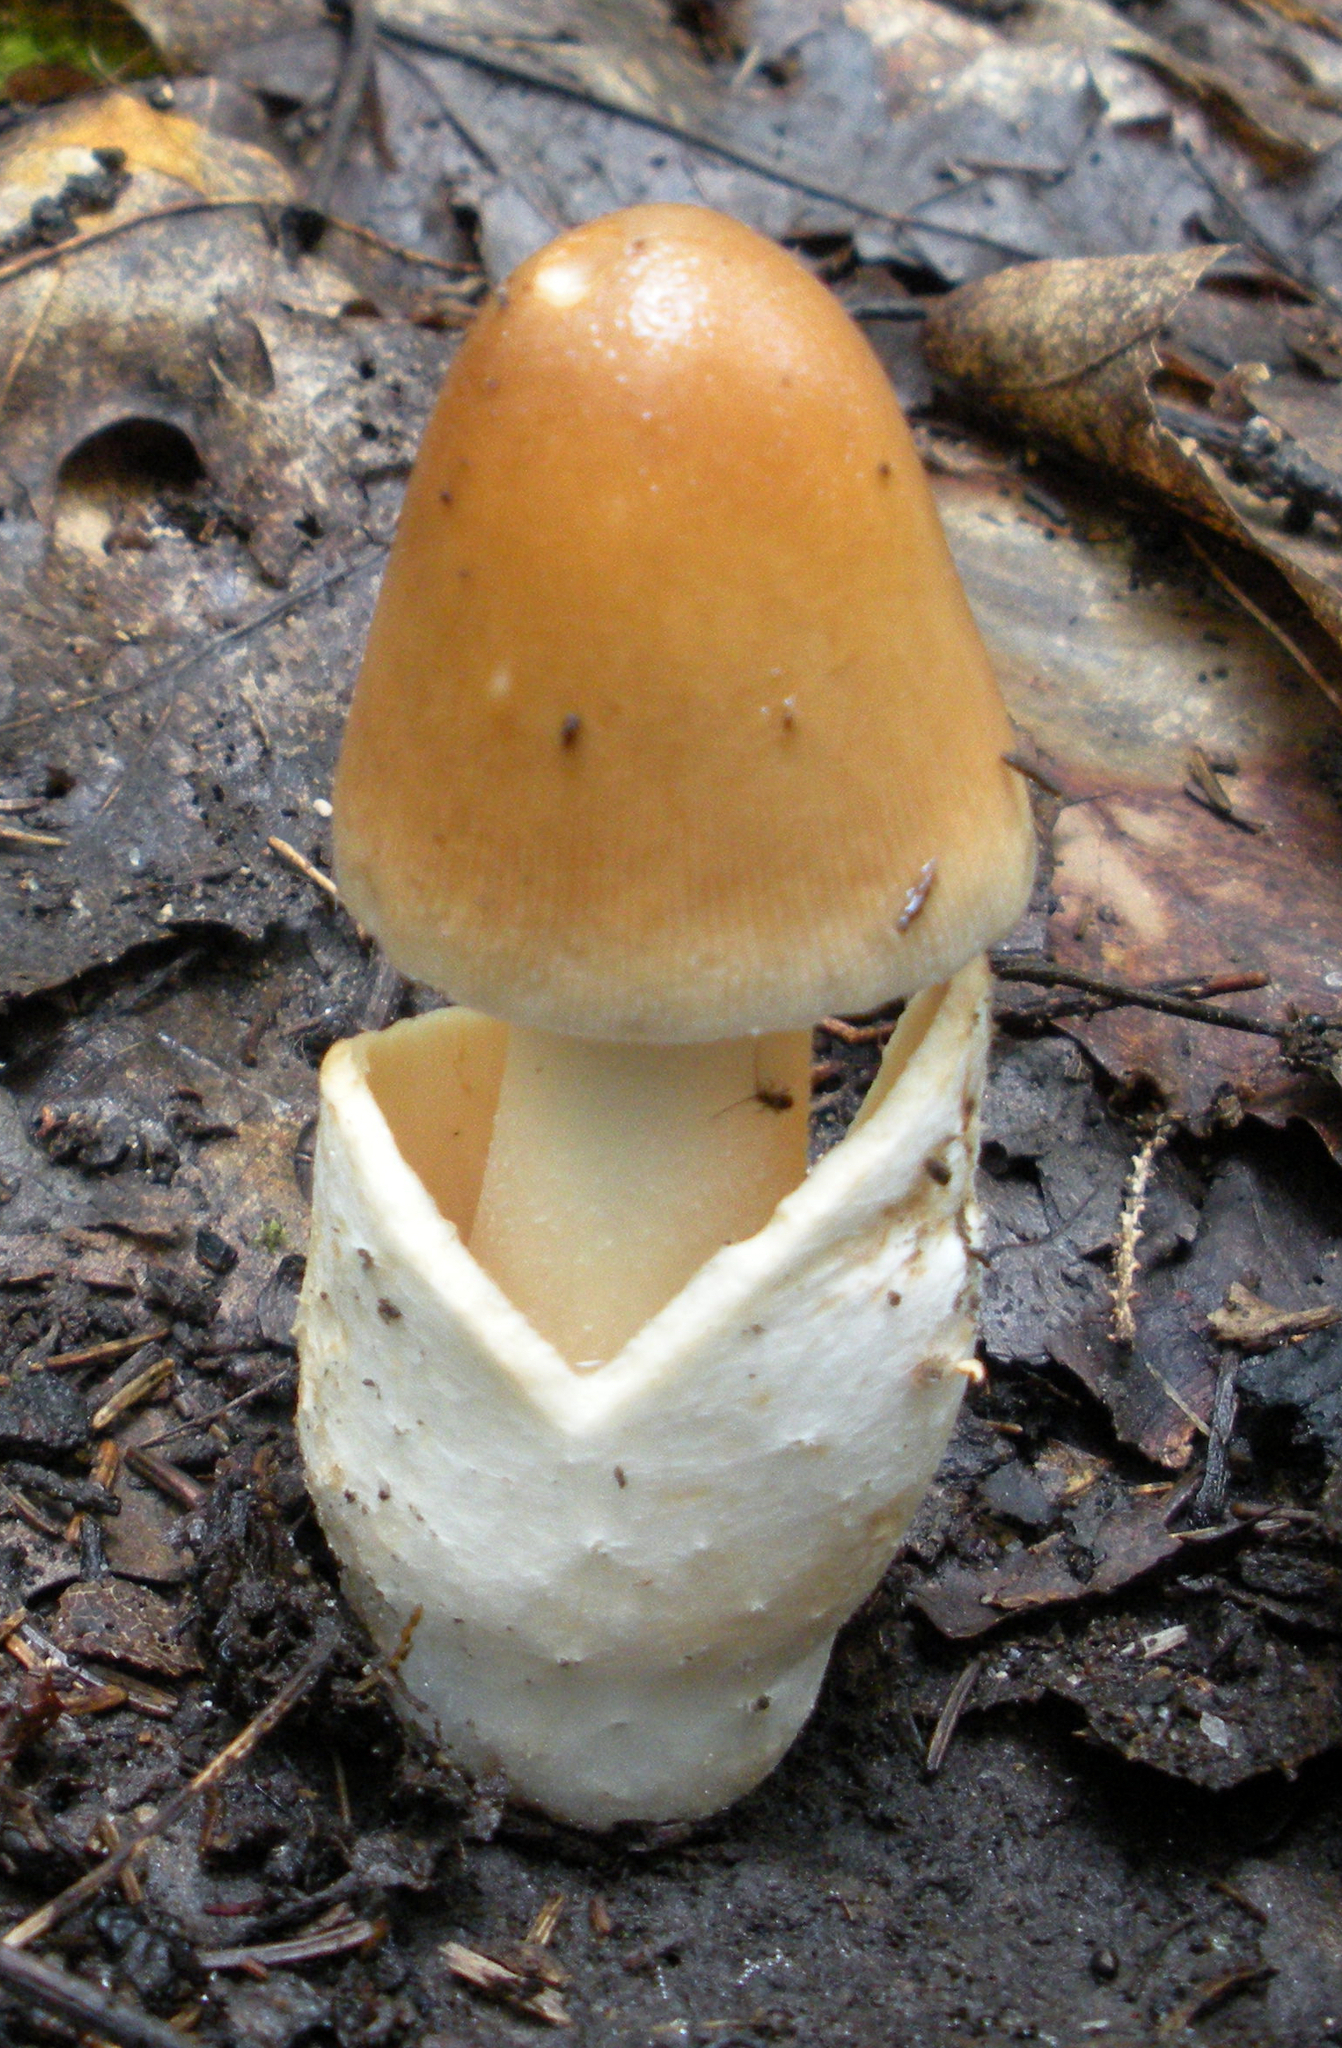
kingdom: Fungi
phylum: Basidiomycota
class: Agaricomycetes
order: Agaricales
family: Amanitaceae
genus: Amanita
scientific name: Amanita fulva
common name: Tawny grisette
